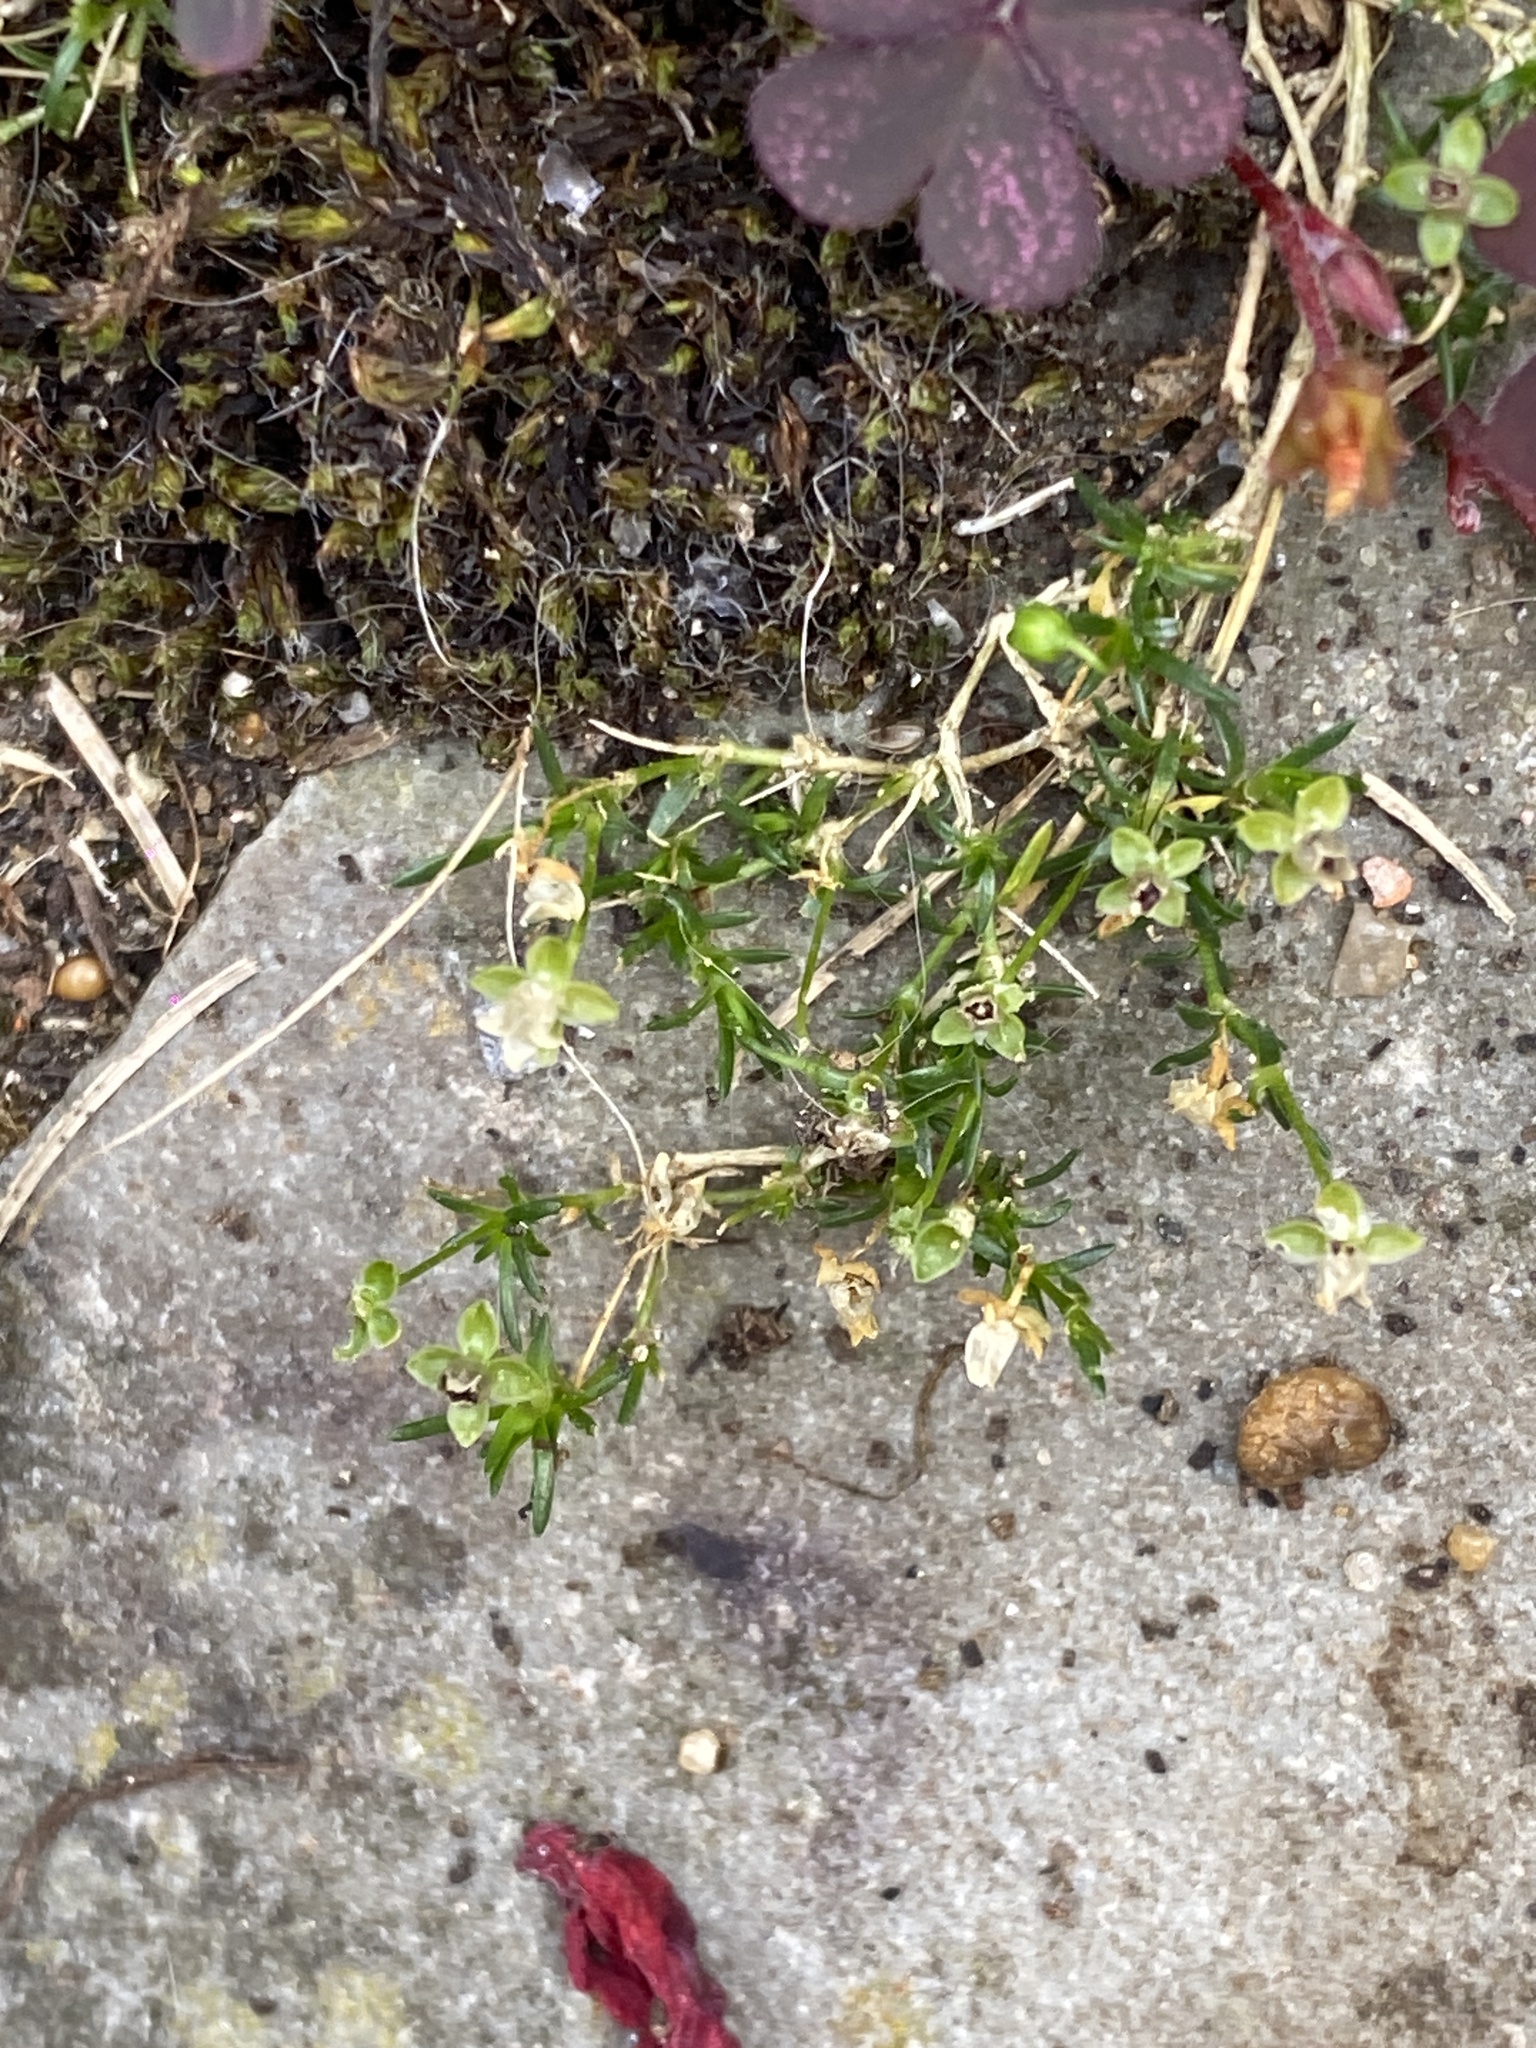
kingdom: Plantae
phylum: Tracheophyta
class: Magnoliopsida
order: Caryophyllales
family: Caryophyllaceae
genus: Sagina
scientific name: Sagina procumbens
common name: Procumbent pearlwort
